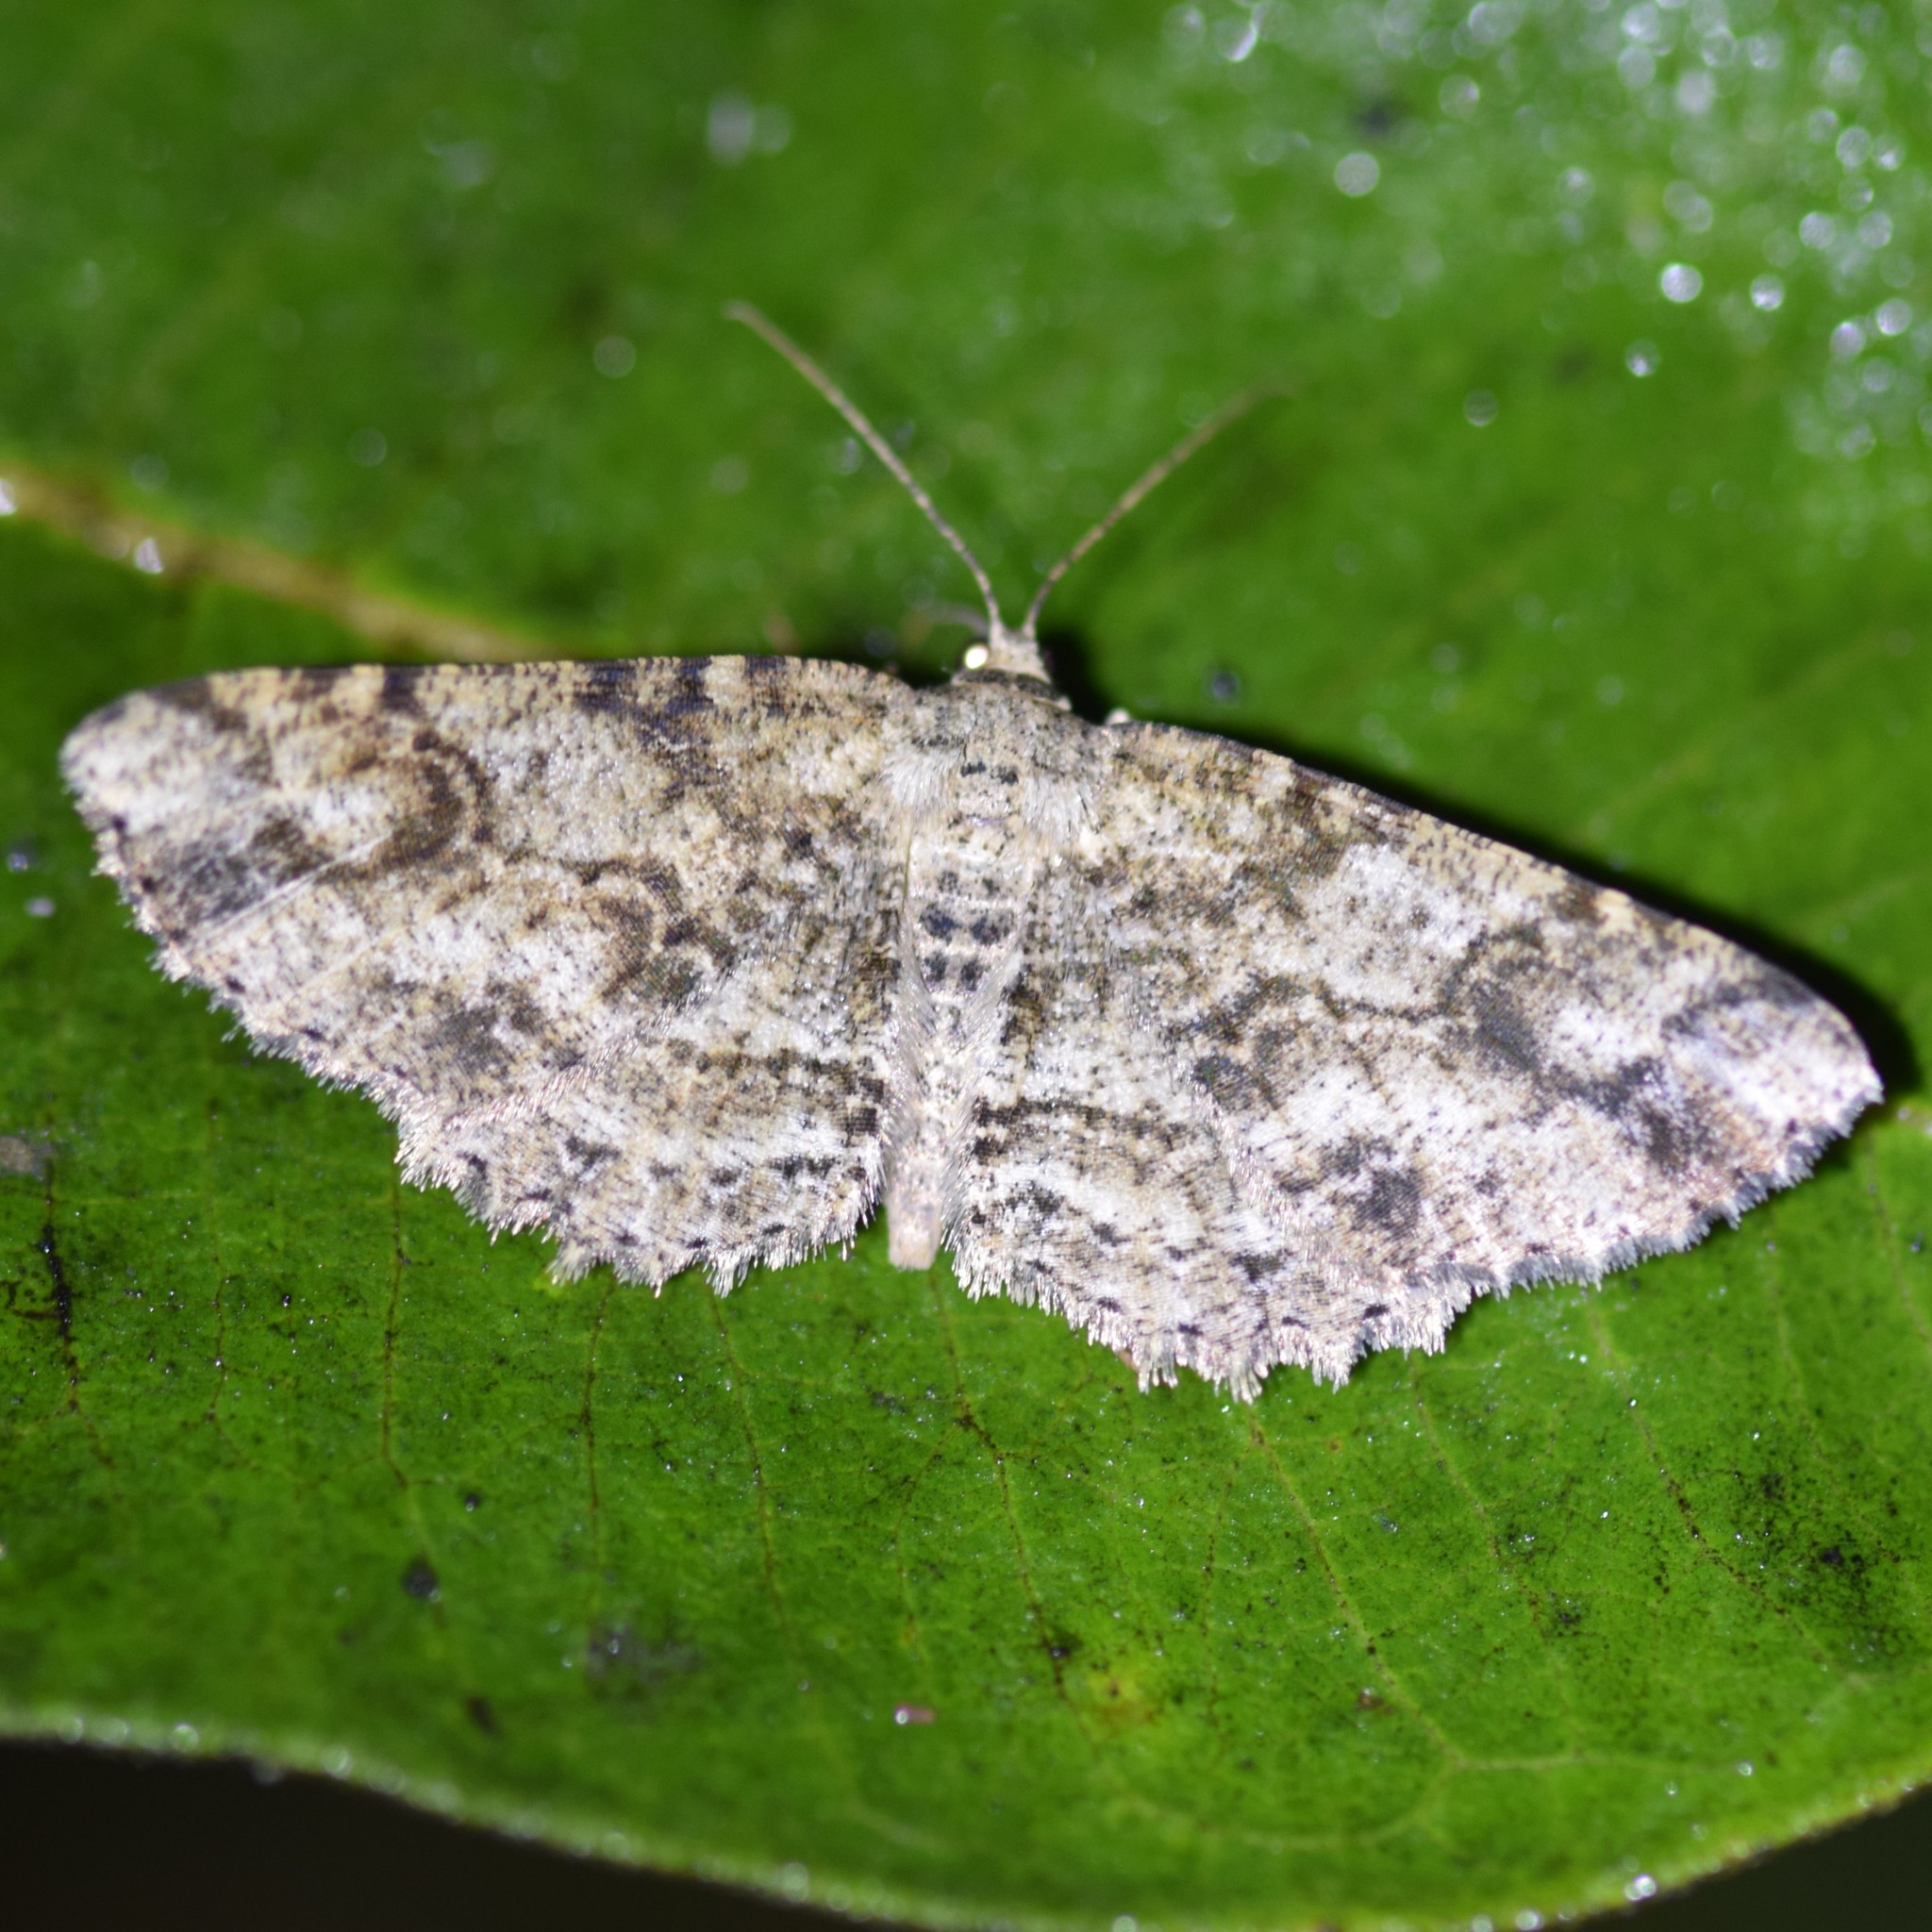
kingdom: Animalia
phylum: Arthropoda
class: Insecta
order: Lepidoptera
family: Geometridae
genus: Melanolophia
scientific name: Melanolophia canadaria
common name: Canadian melanolophia
